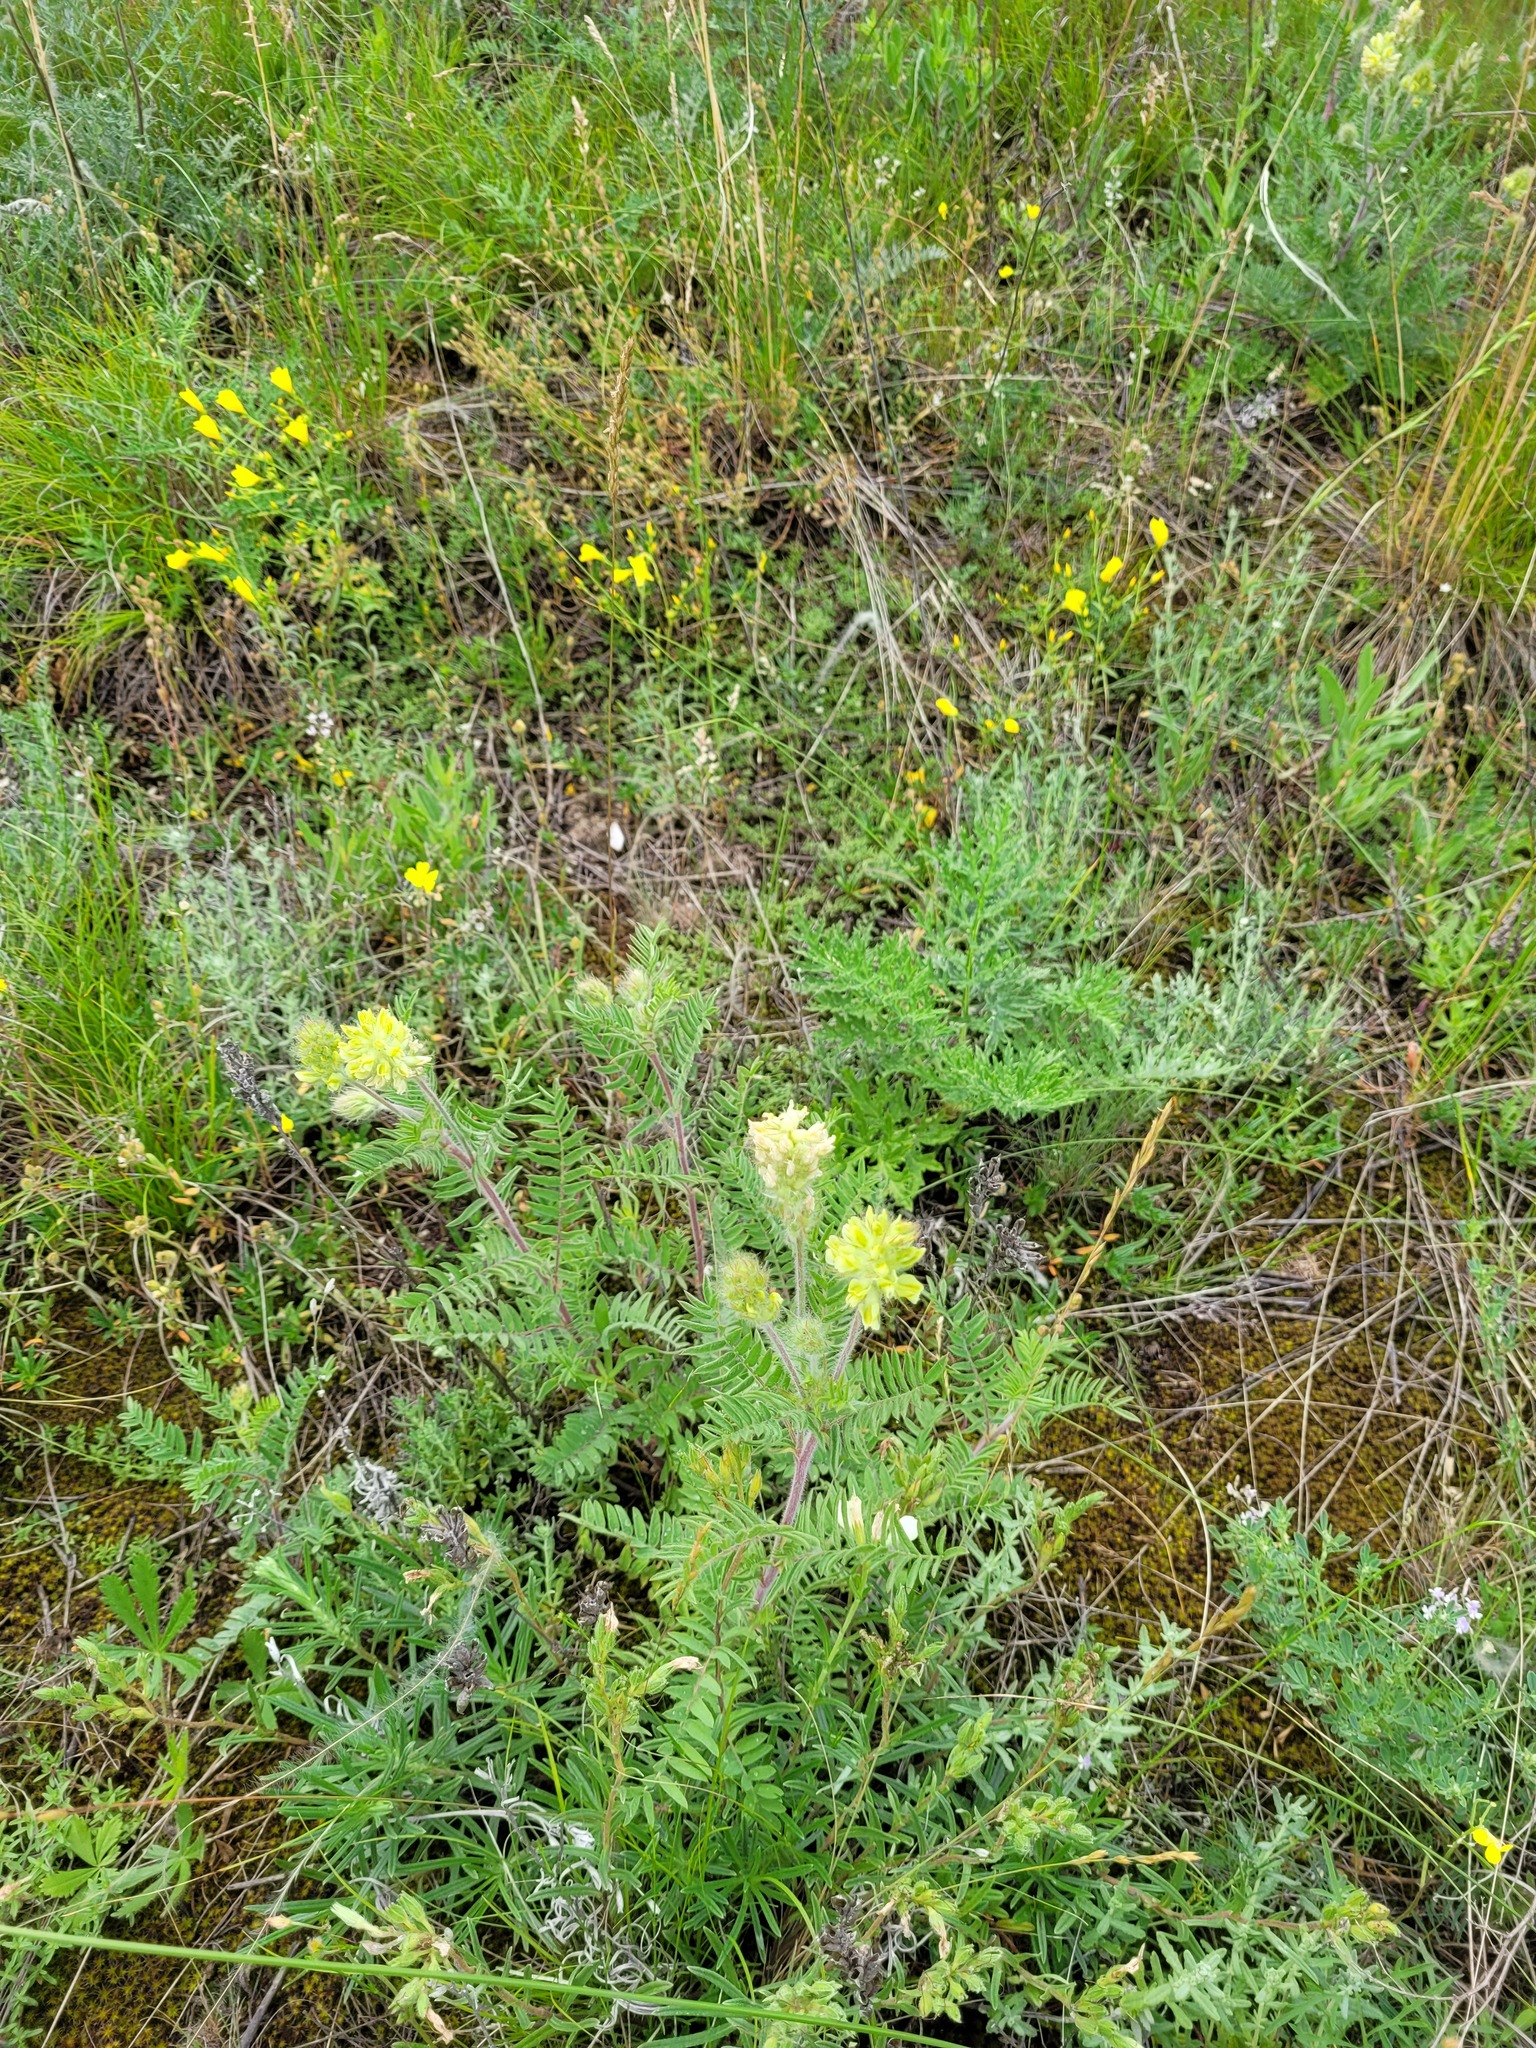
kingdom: Plantae
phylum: Tracheophyta
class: Magnoliopsida
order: Fabales
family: Fabaceae
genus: Oxytropis
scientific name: Oxytropis pilosa
